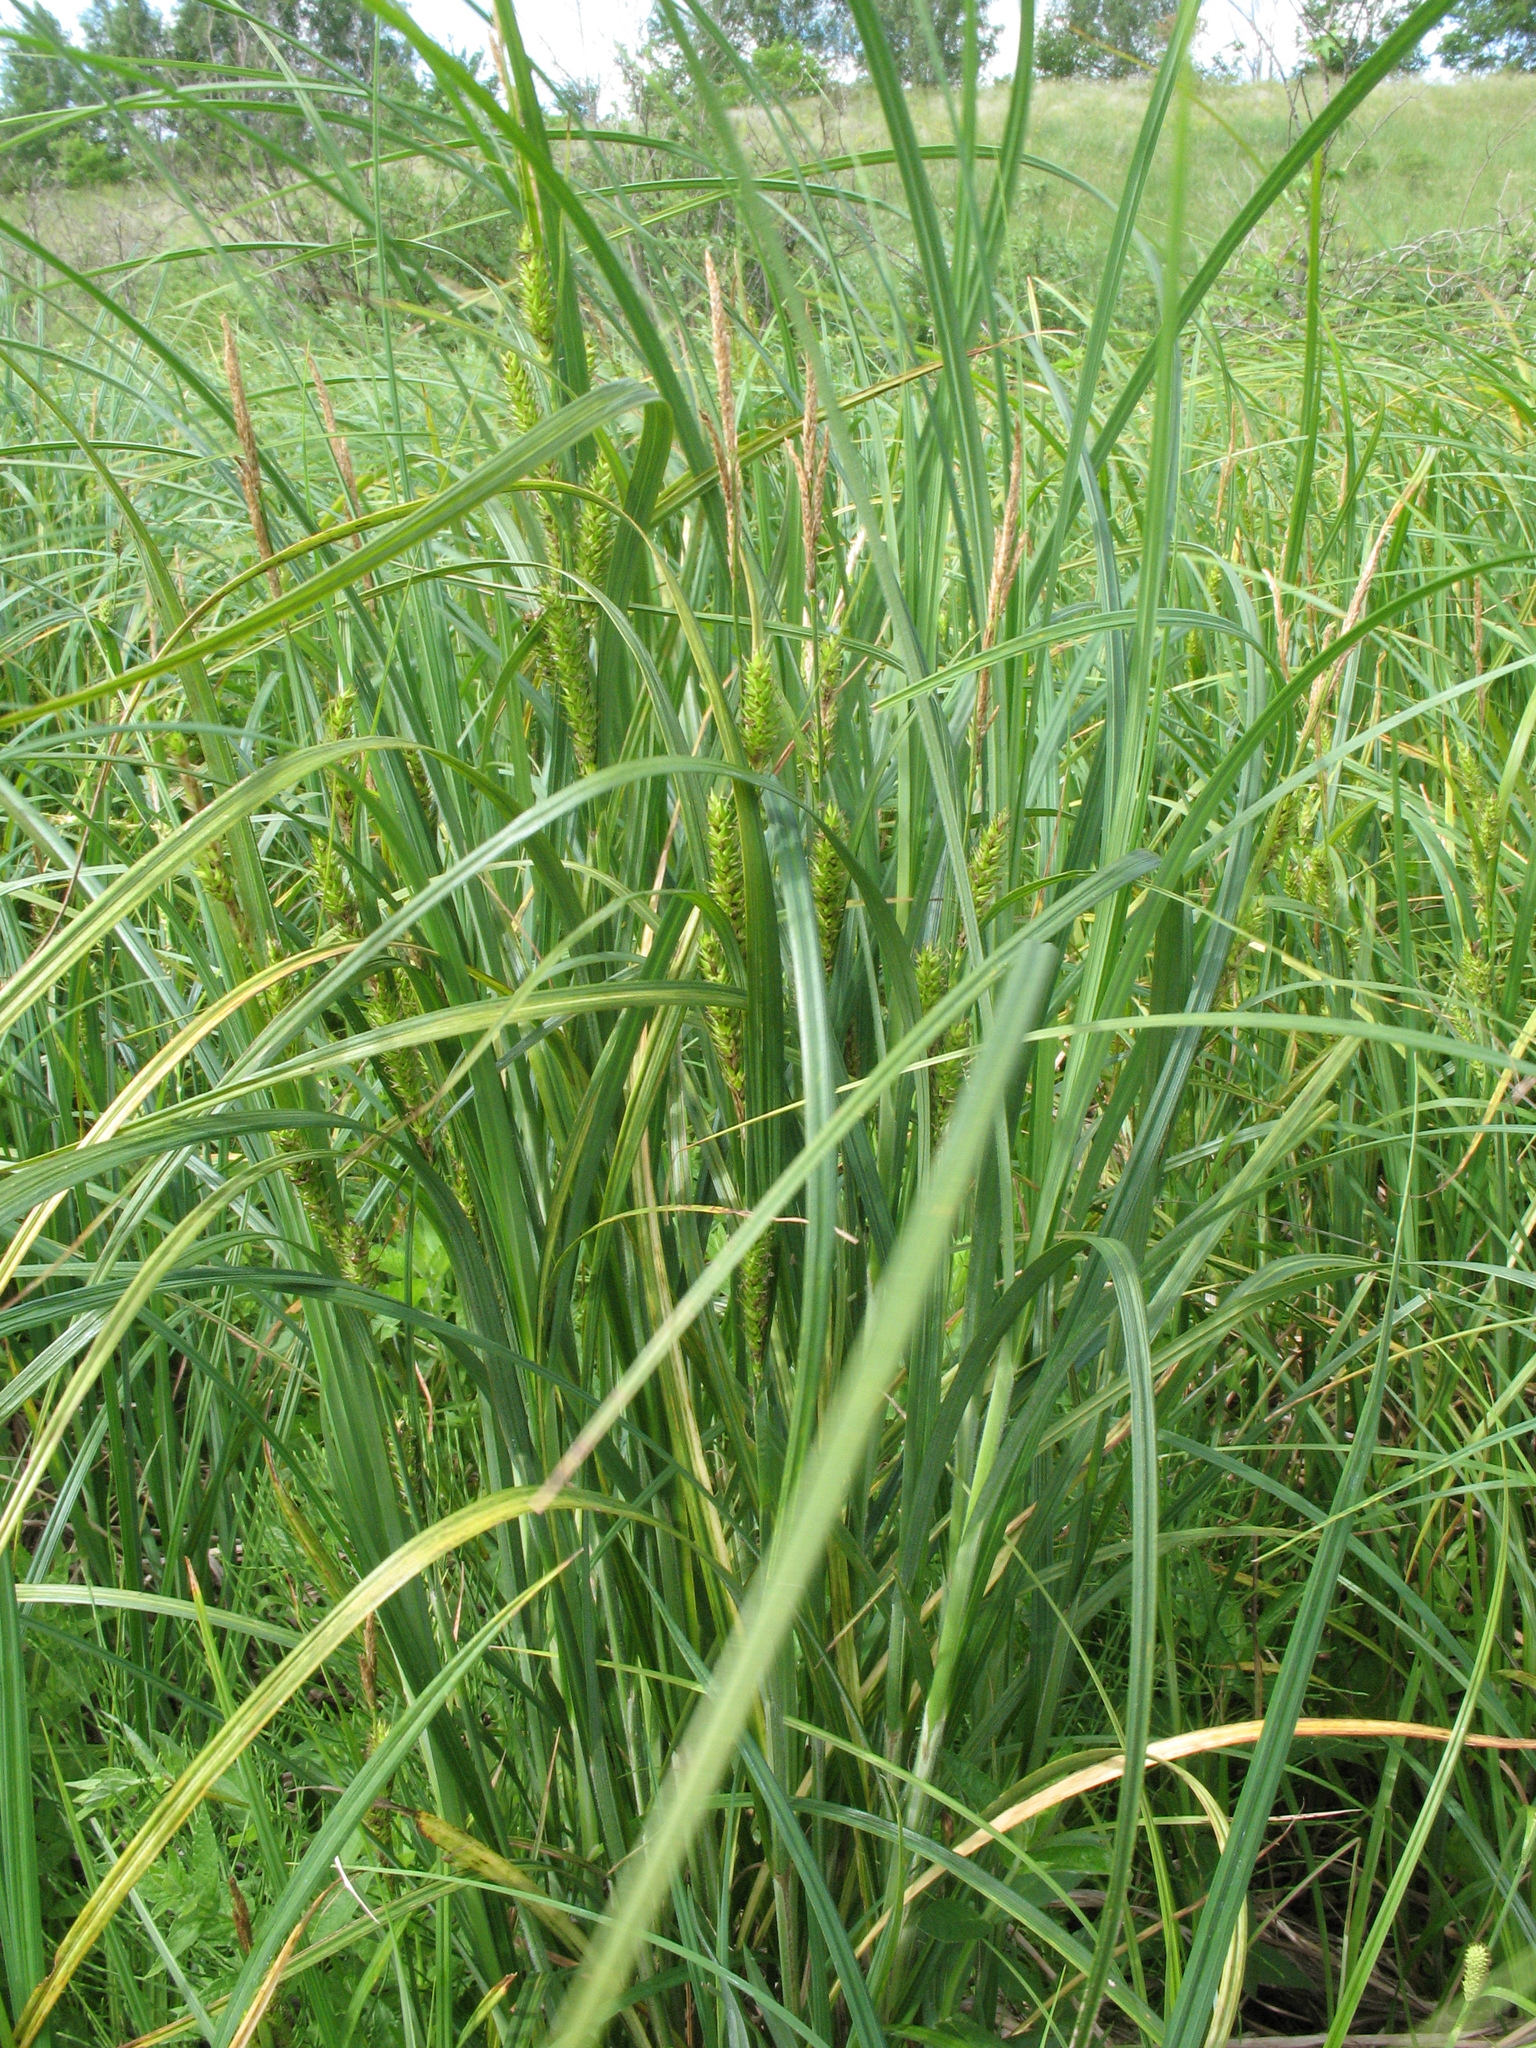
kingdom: Plantae
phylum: Tracheophyta
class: Liliopsida
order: Poales
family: Cyperaceae
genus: Carex
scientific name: Carex atherodes
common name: Wheat sedge
